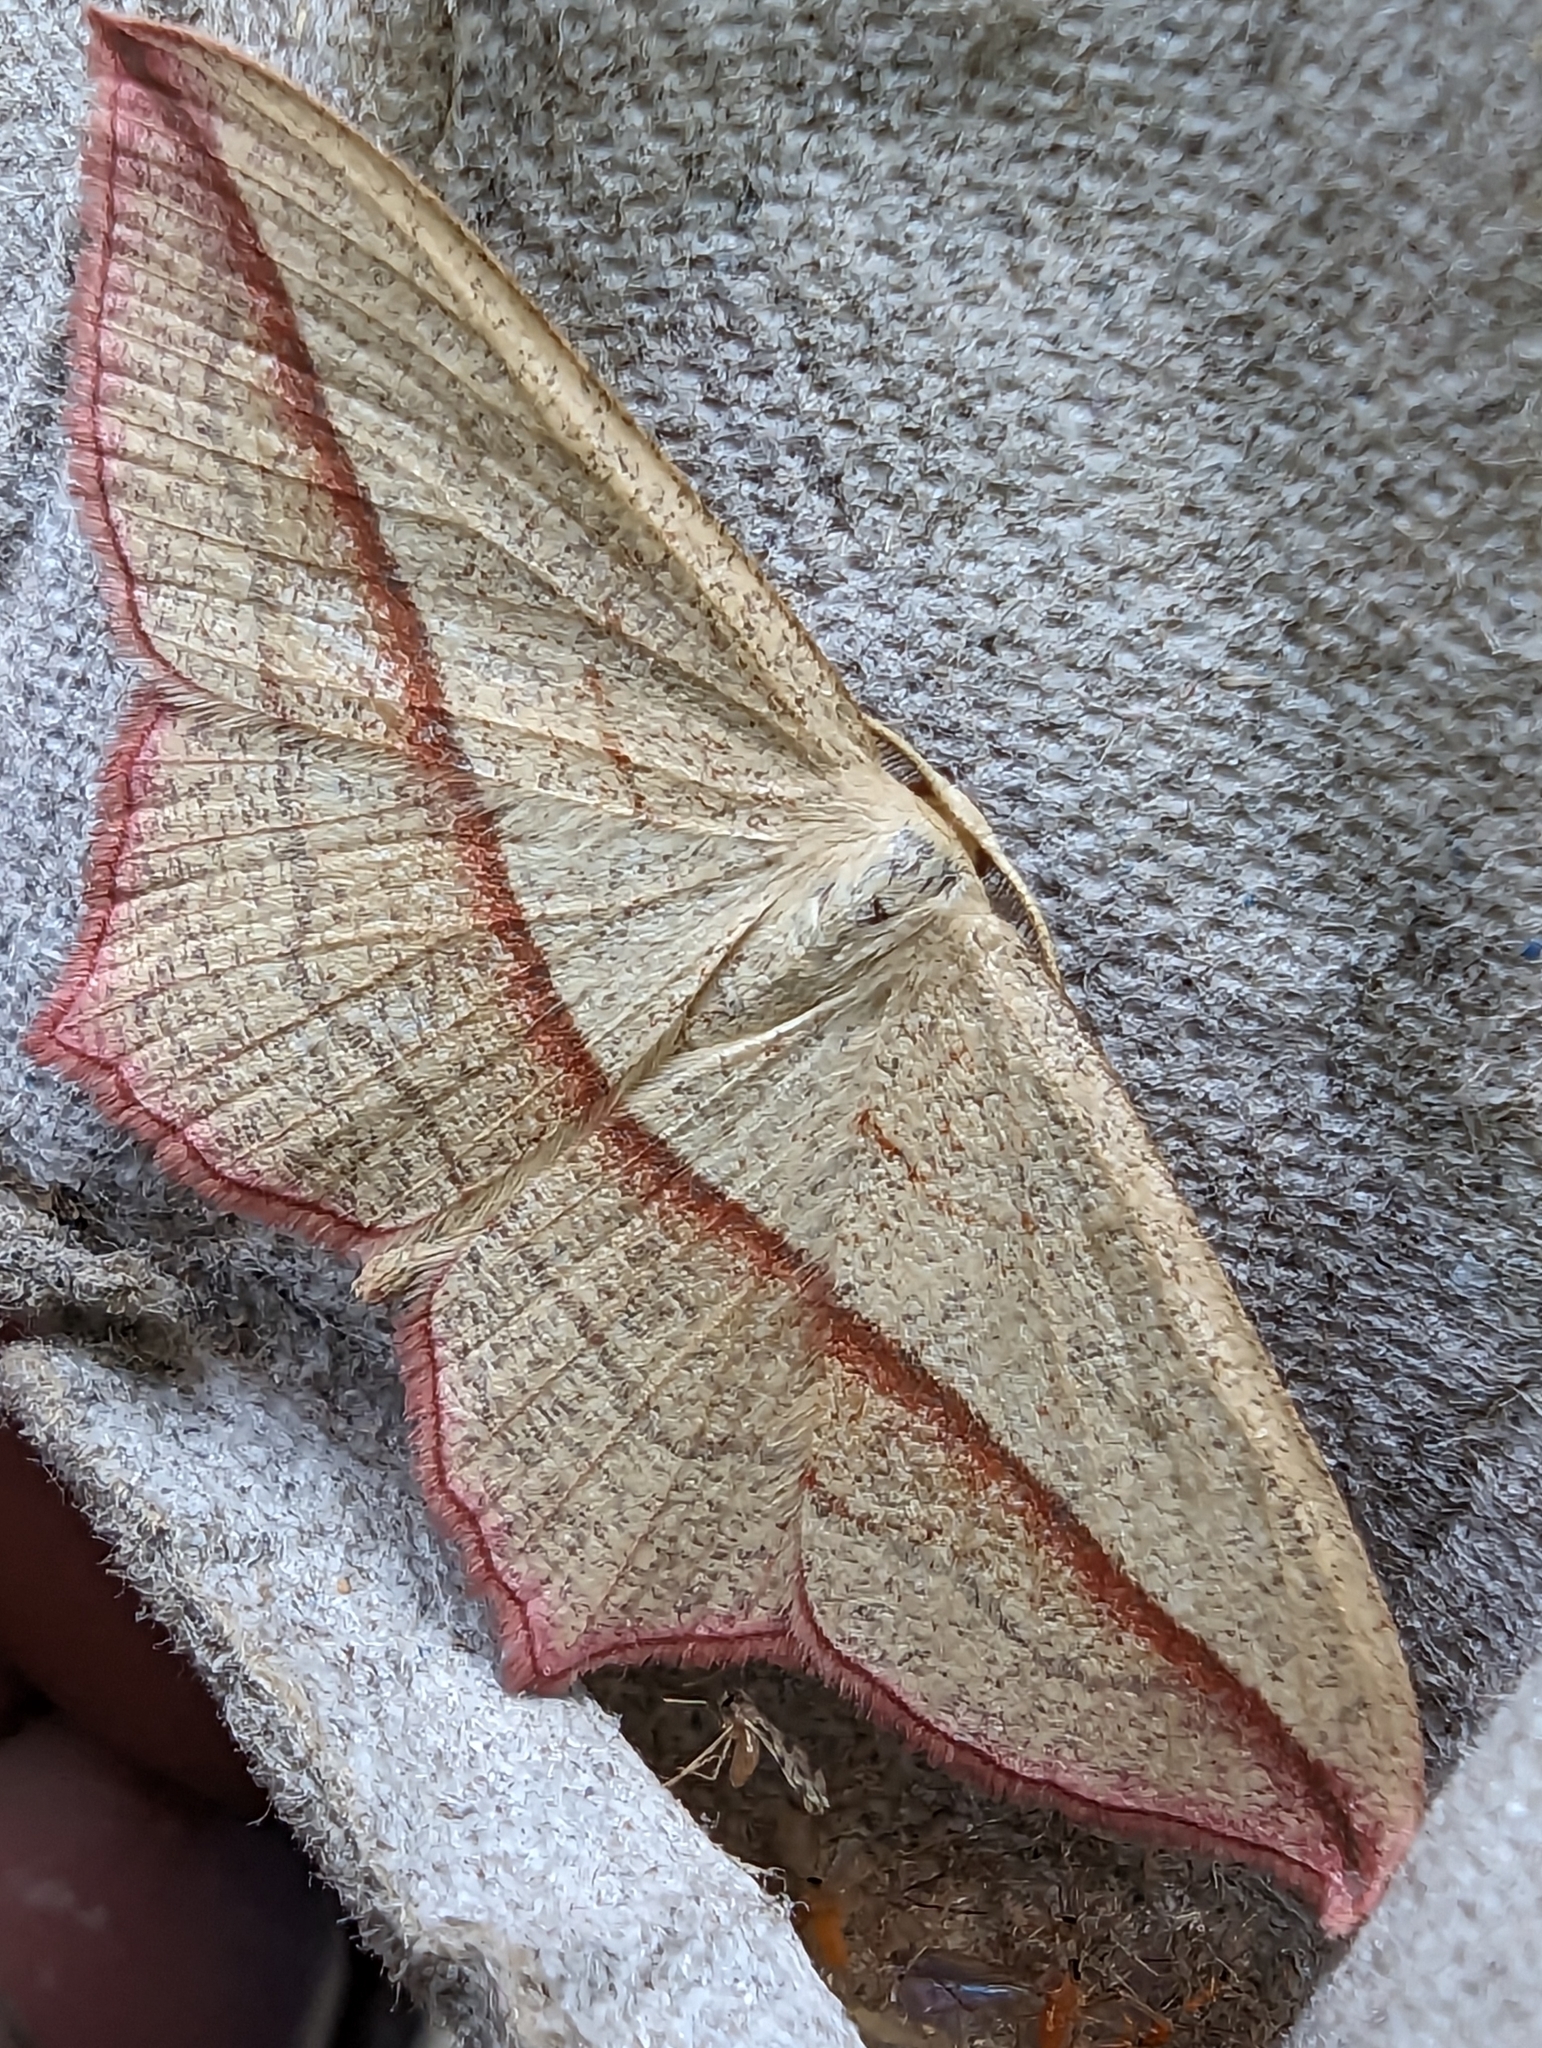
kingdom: Animalia
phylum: Arthropoda
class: Insecta
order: Lepidoptera
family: Geometridae
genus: Timandra
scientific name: Timandra comae
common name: Blood-vein
